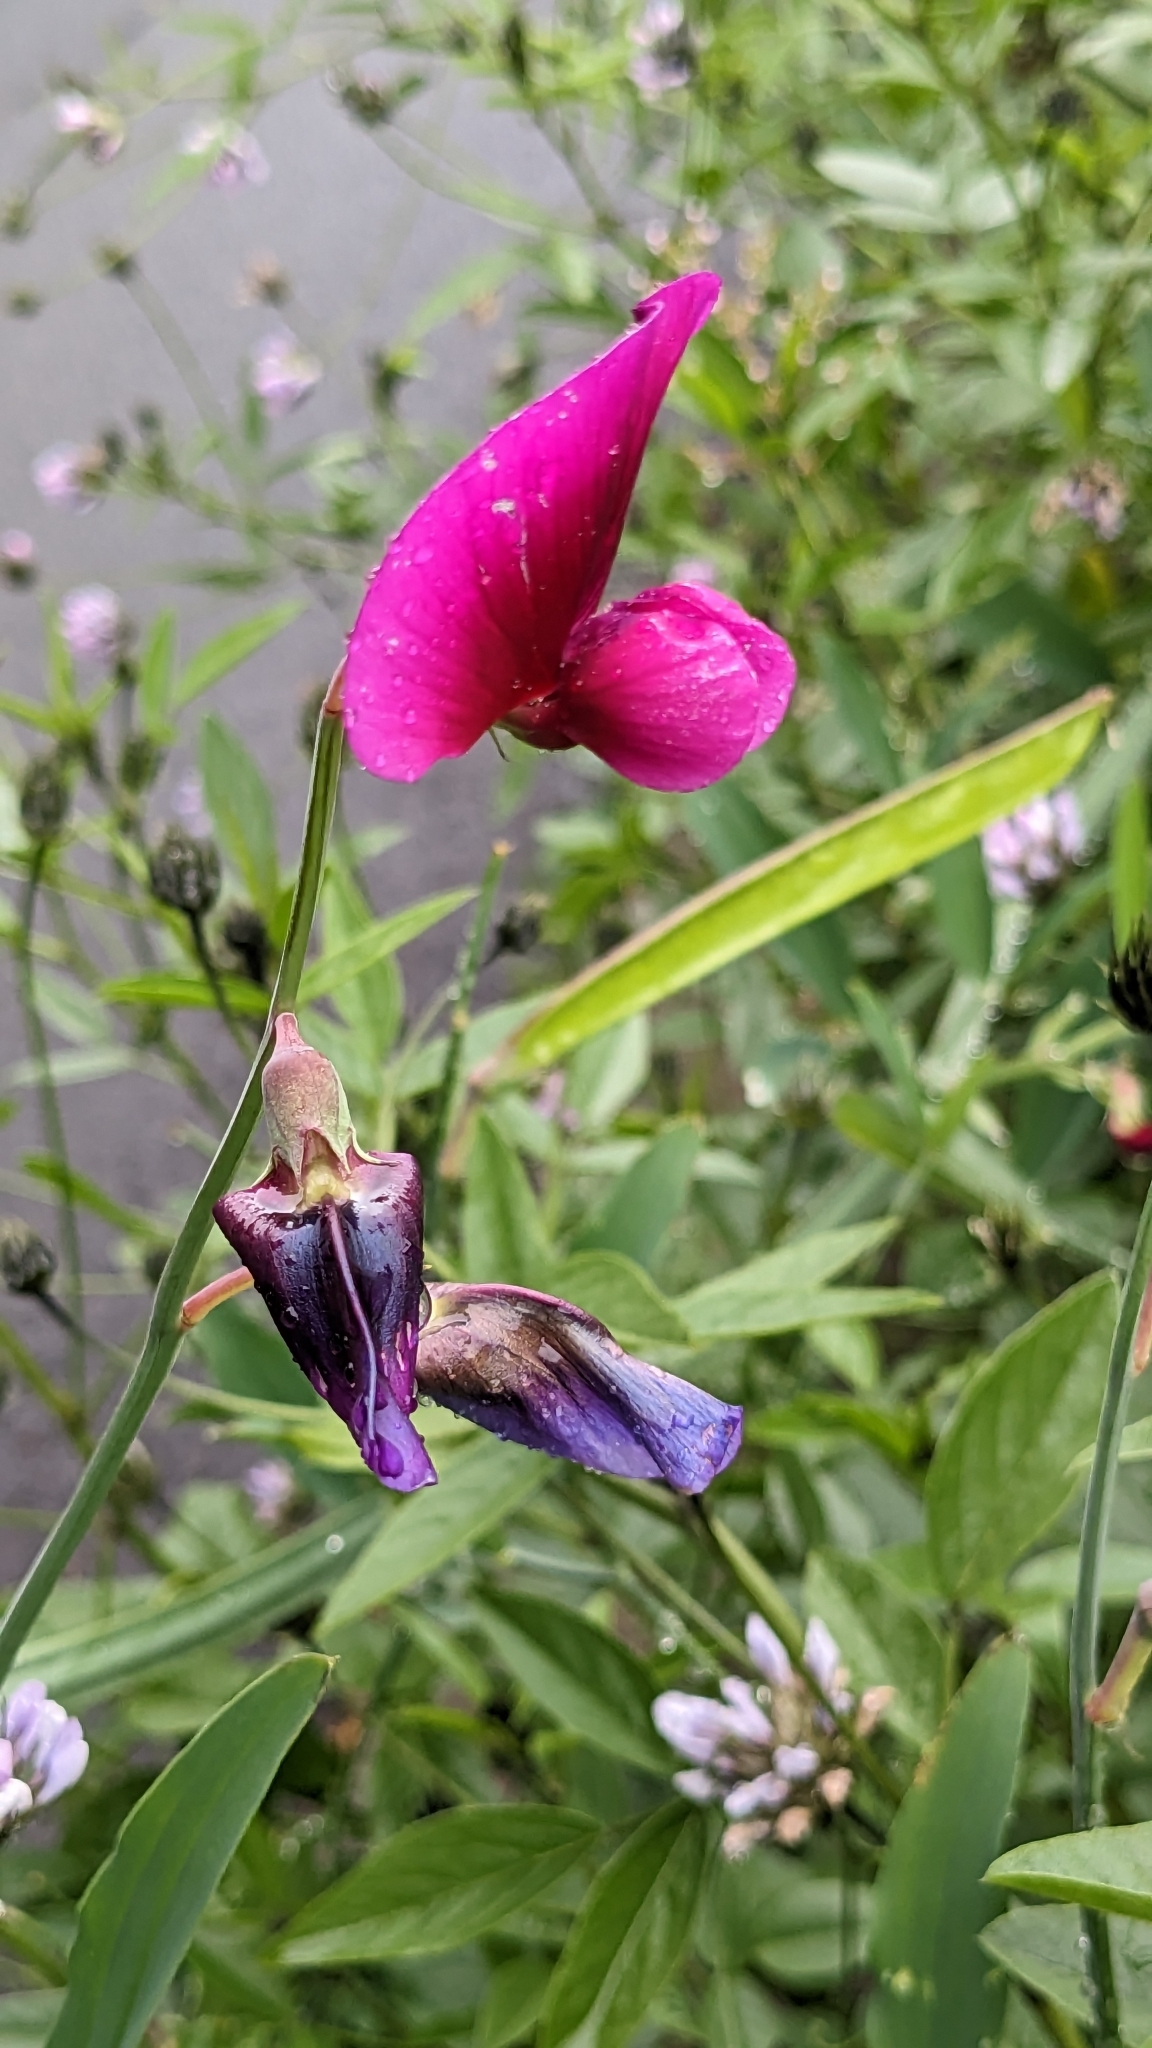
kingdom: Plantae
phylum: Tracheophyta
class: Magnoliopsida
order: Fabales
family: Fabaceae
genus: Lathyrus
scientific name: Lathyrus tingitanus
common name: Tangier pea
